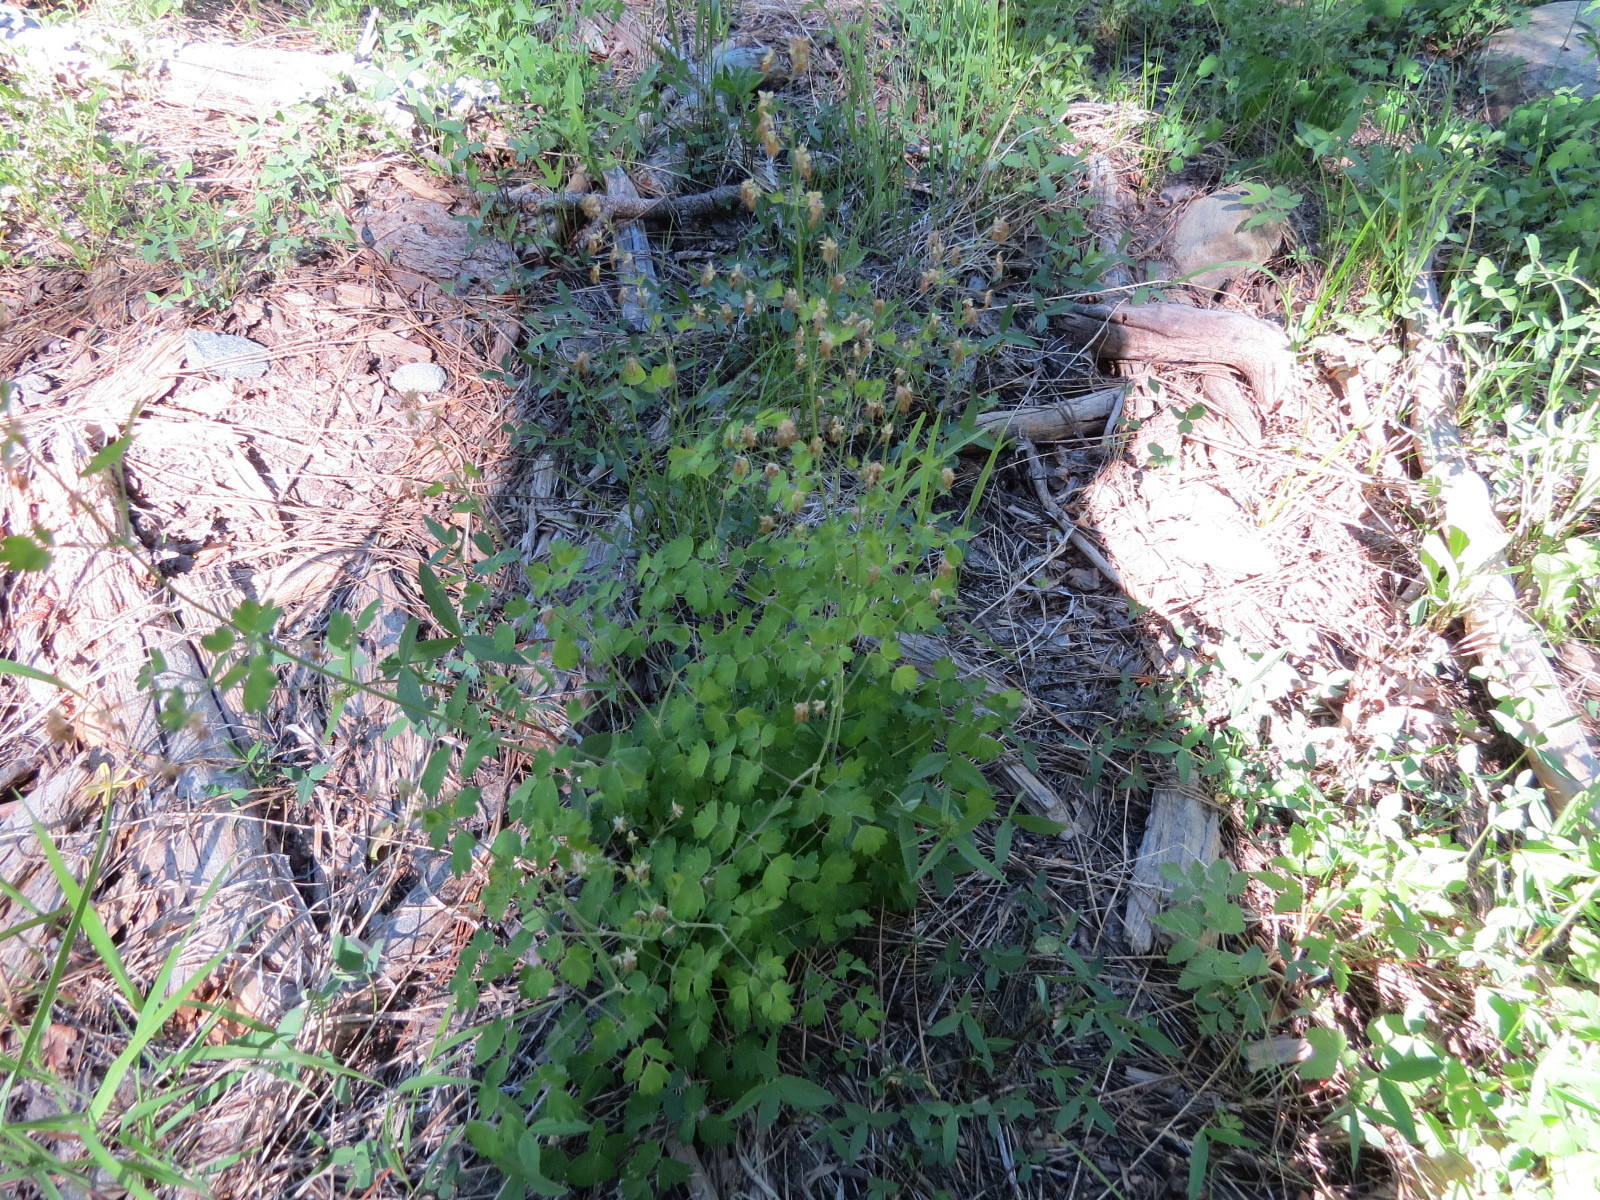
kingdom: Plantae
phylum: Tracheophyta
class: Magnoliopsida
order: Ranunculales
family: Ranunculaceae
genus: Thalictrum
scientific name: Thalictrum fendleri
